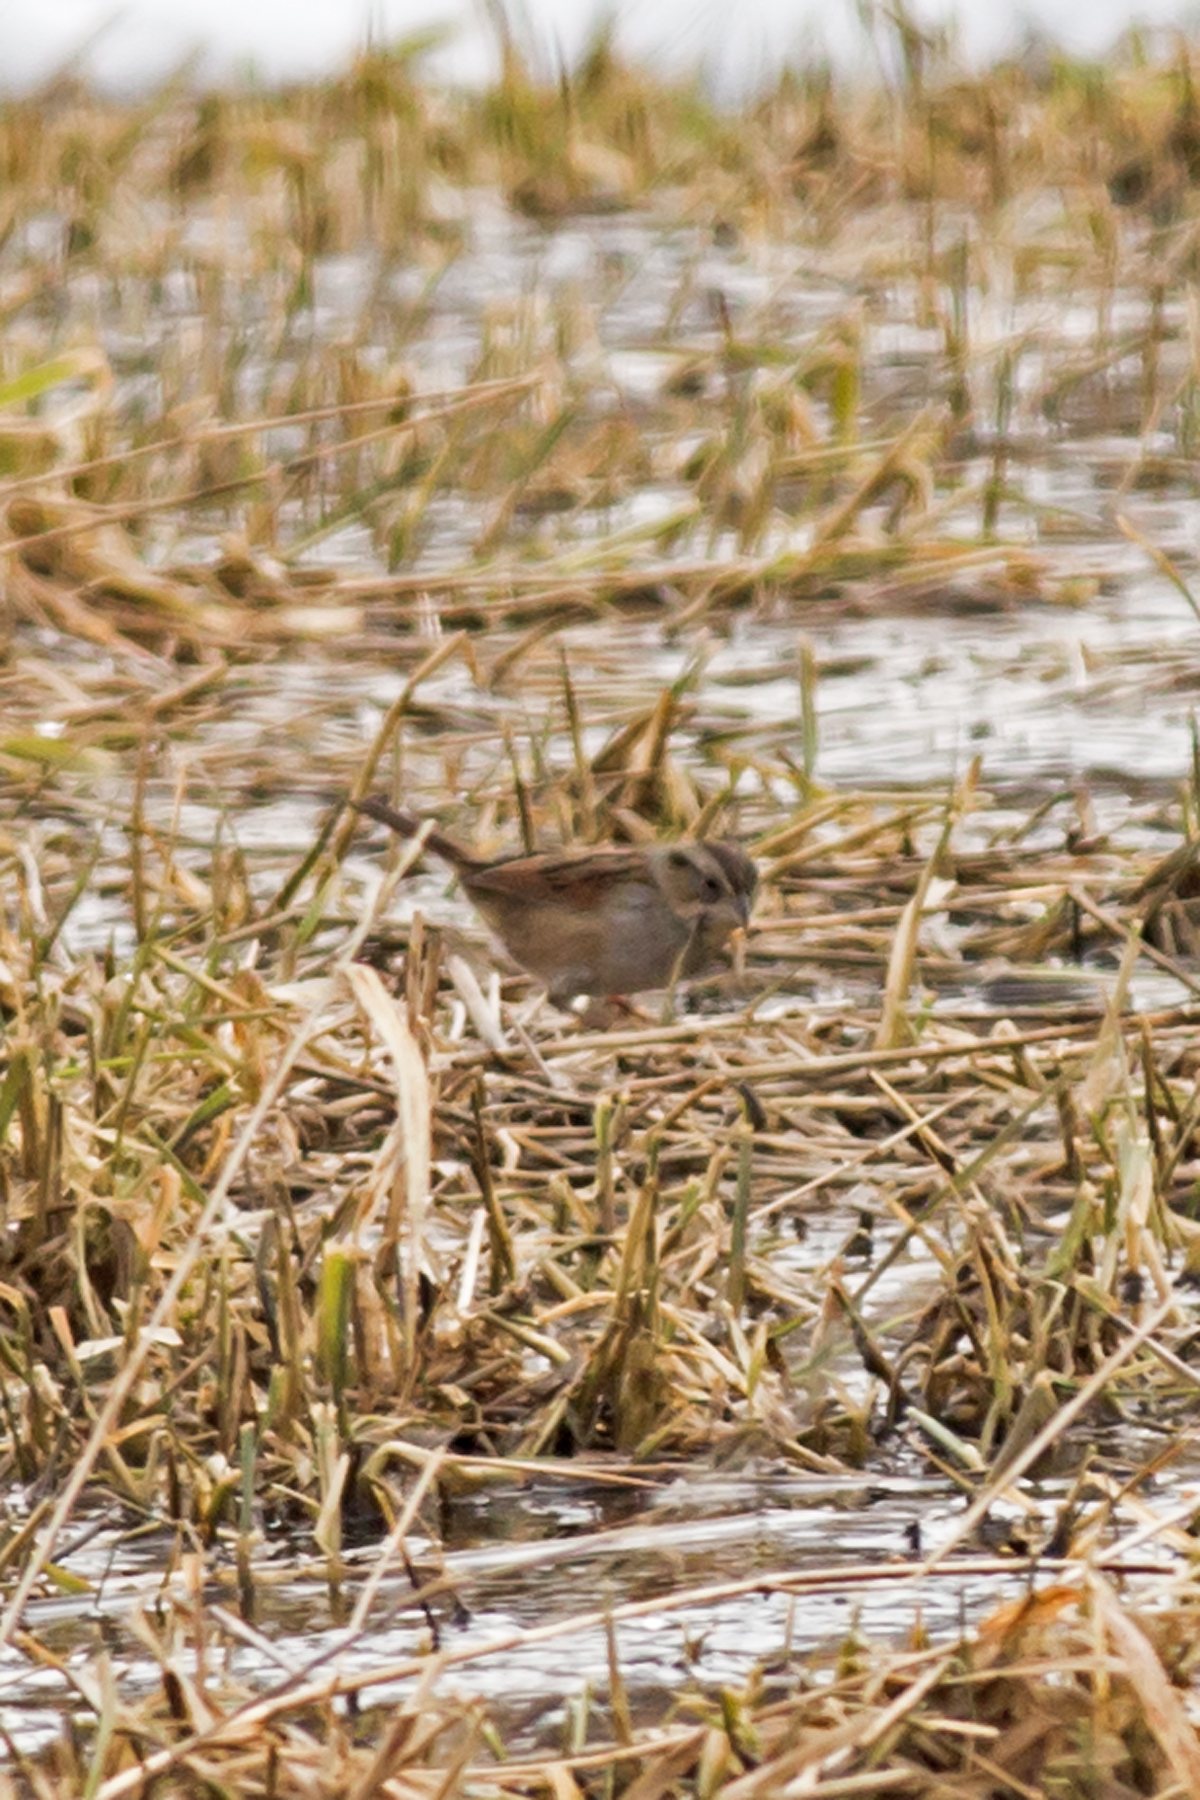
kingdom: Animalia
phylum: Chordata
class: Aves
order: Passeriformes
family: Passerellidae
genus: Melospiza
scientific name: Melospiza georgiana
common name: Swamp sparrow
